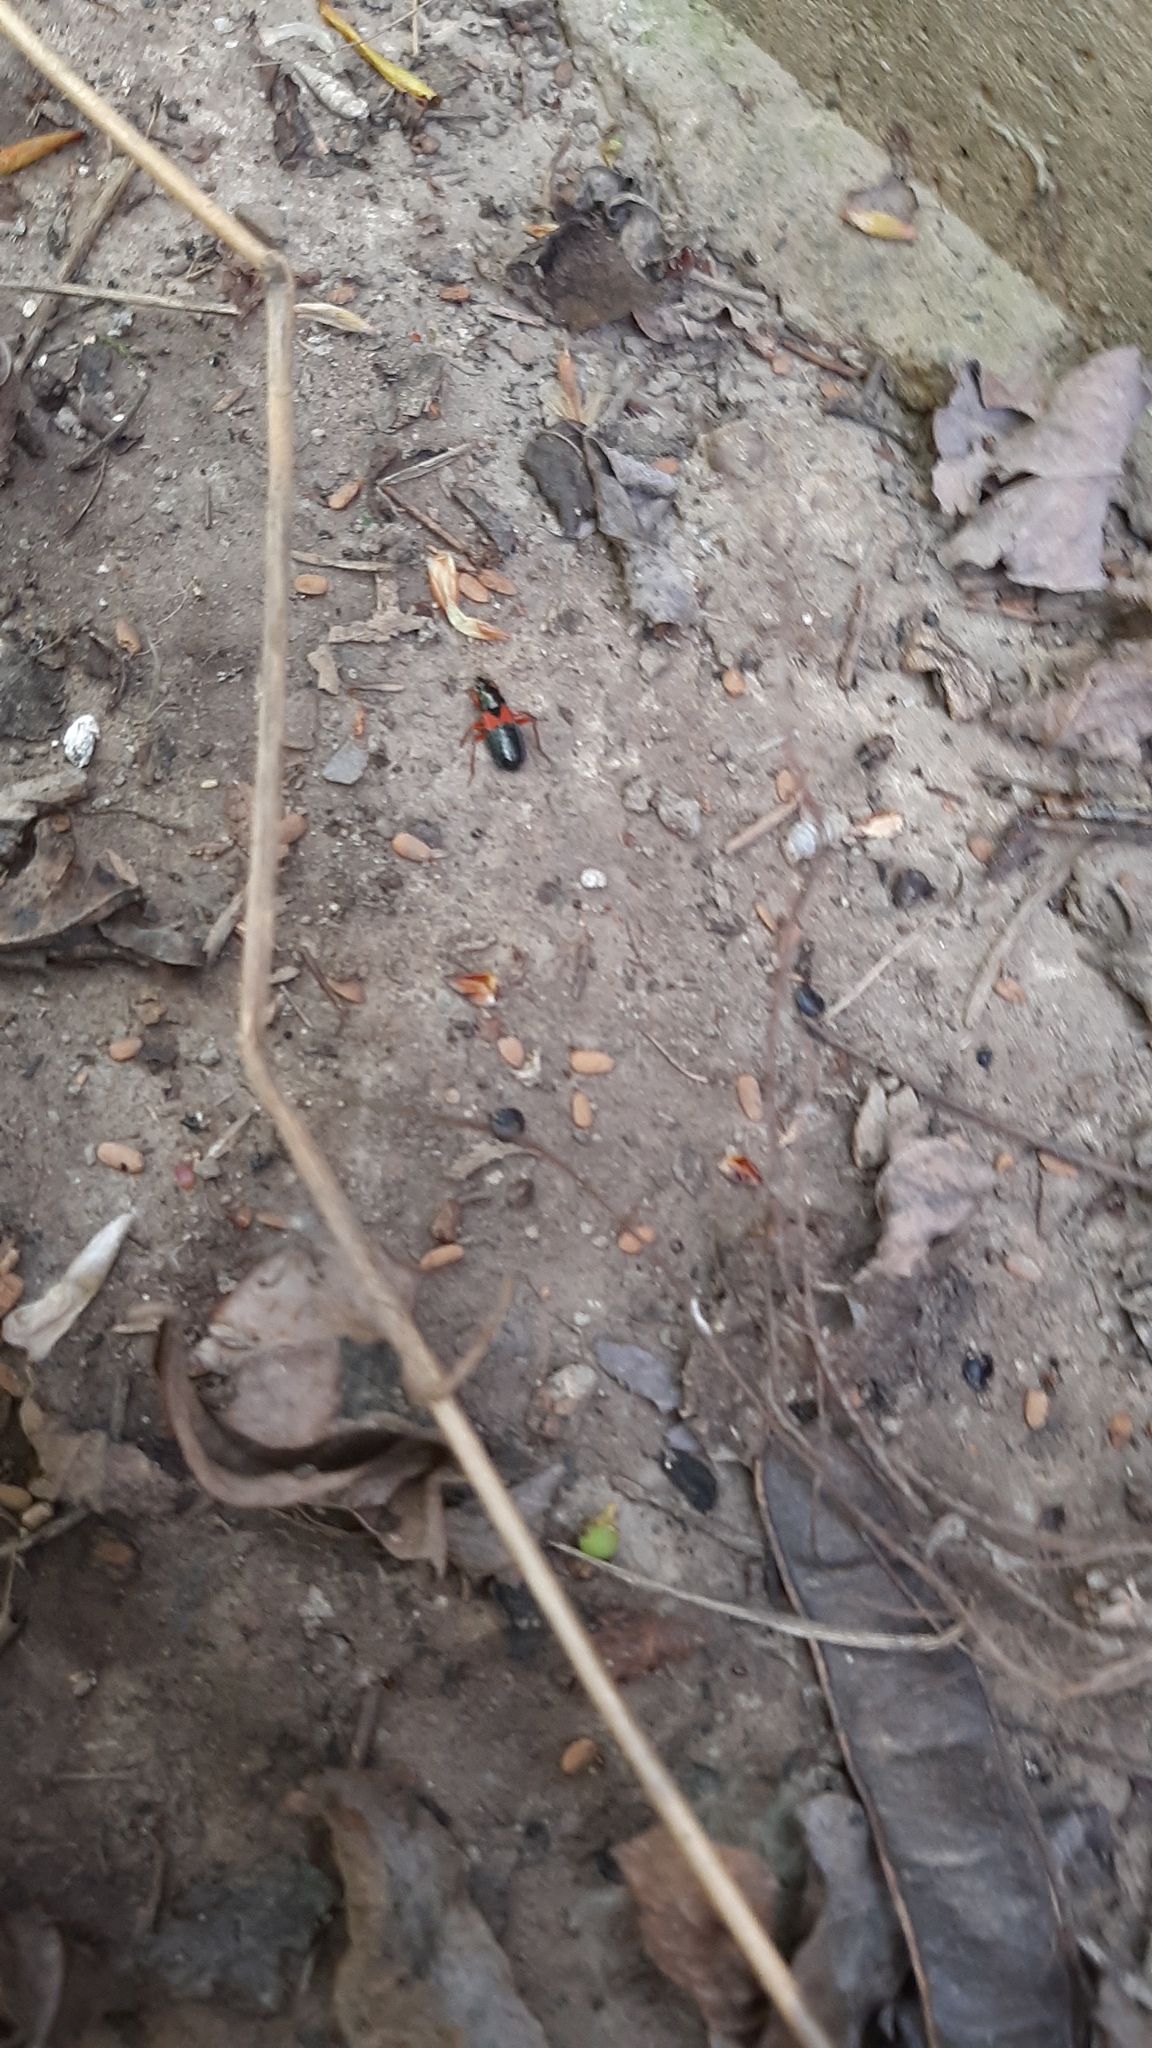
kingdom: Animalia
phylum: Arthropoda
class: Insecta
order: Hemiptera
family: Nabidae
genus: Prostemma
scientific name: Prostemma guttula
